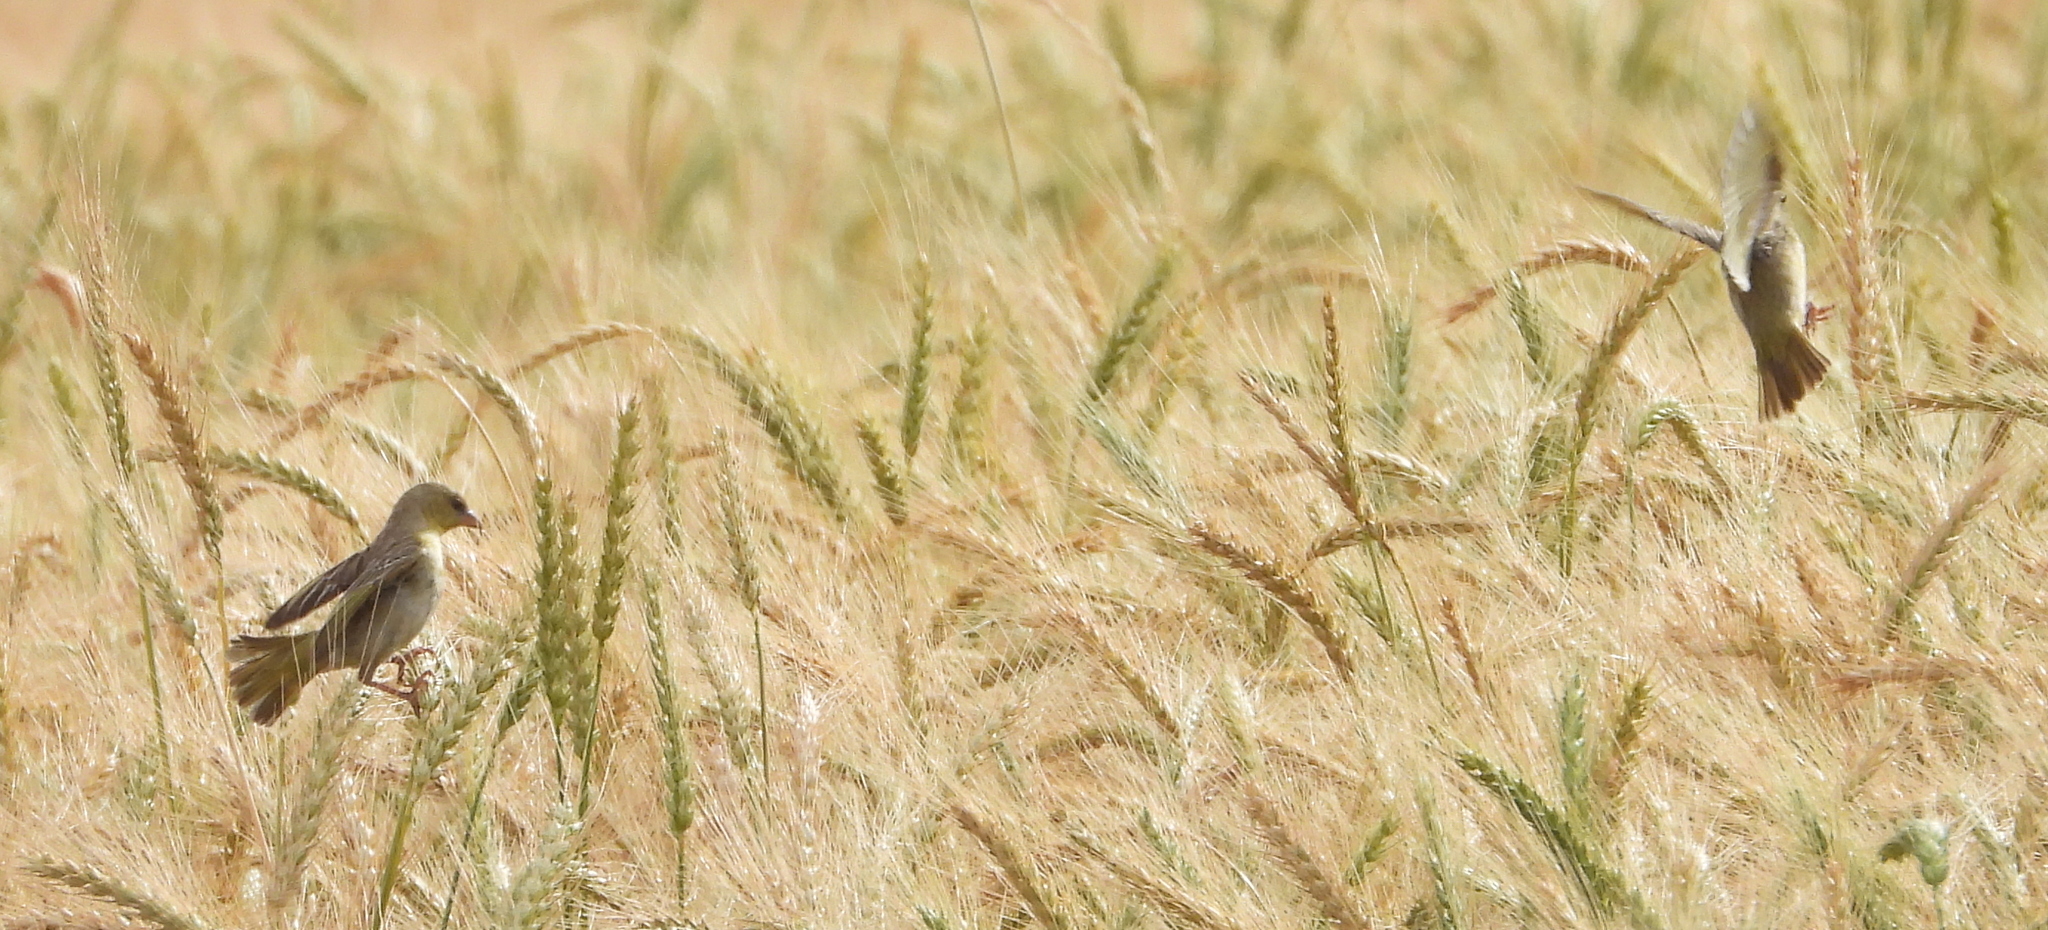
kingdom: Animalia
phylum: Chordata
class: Aves
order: Passeriformes
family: Ploceidae
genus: Ploceus
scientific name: Ploceus capensis
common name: Cape weaver
